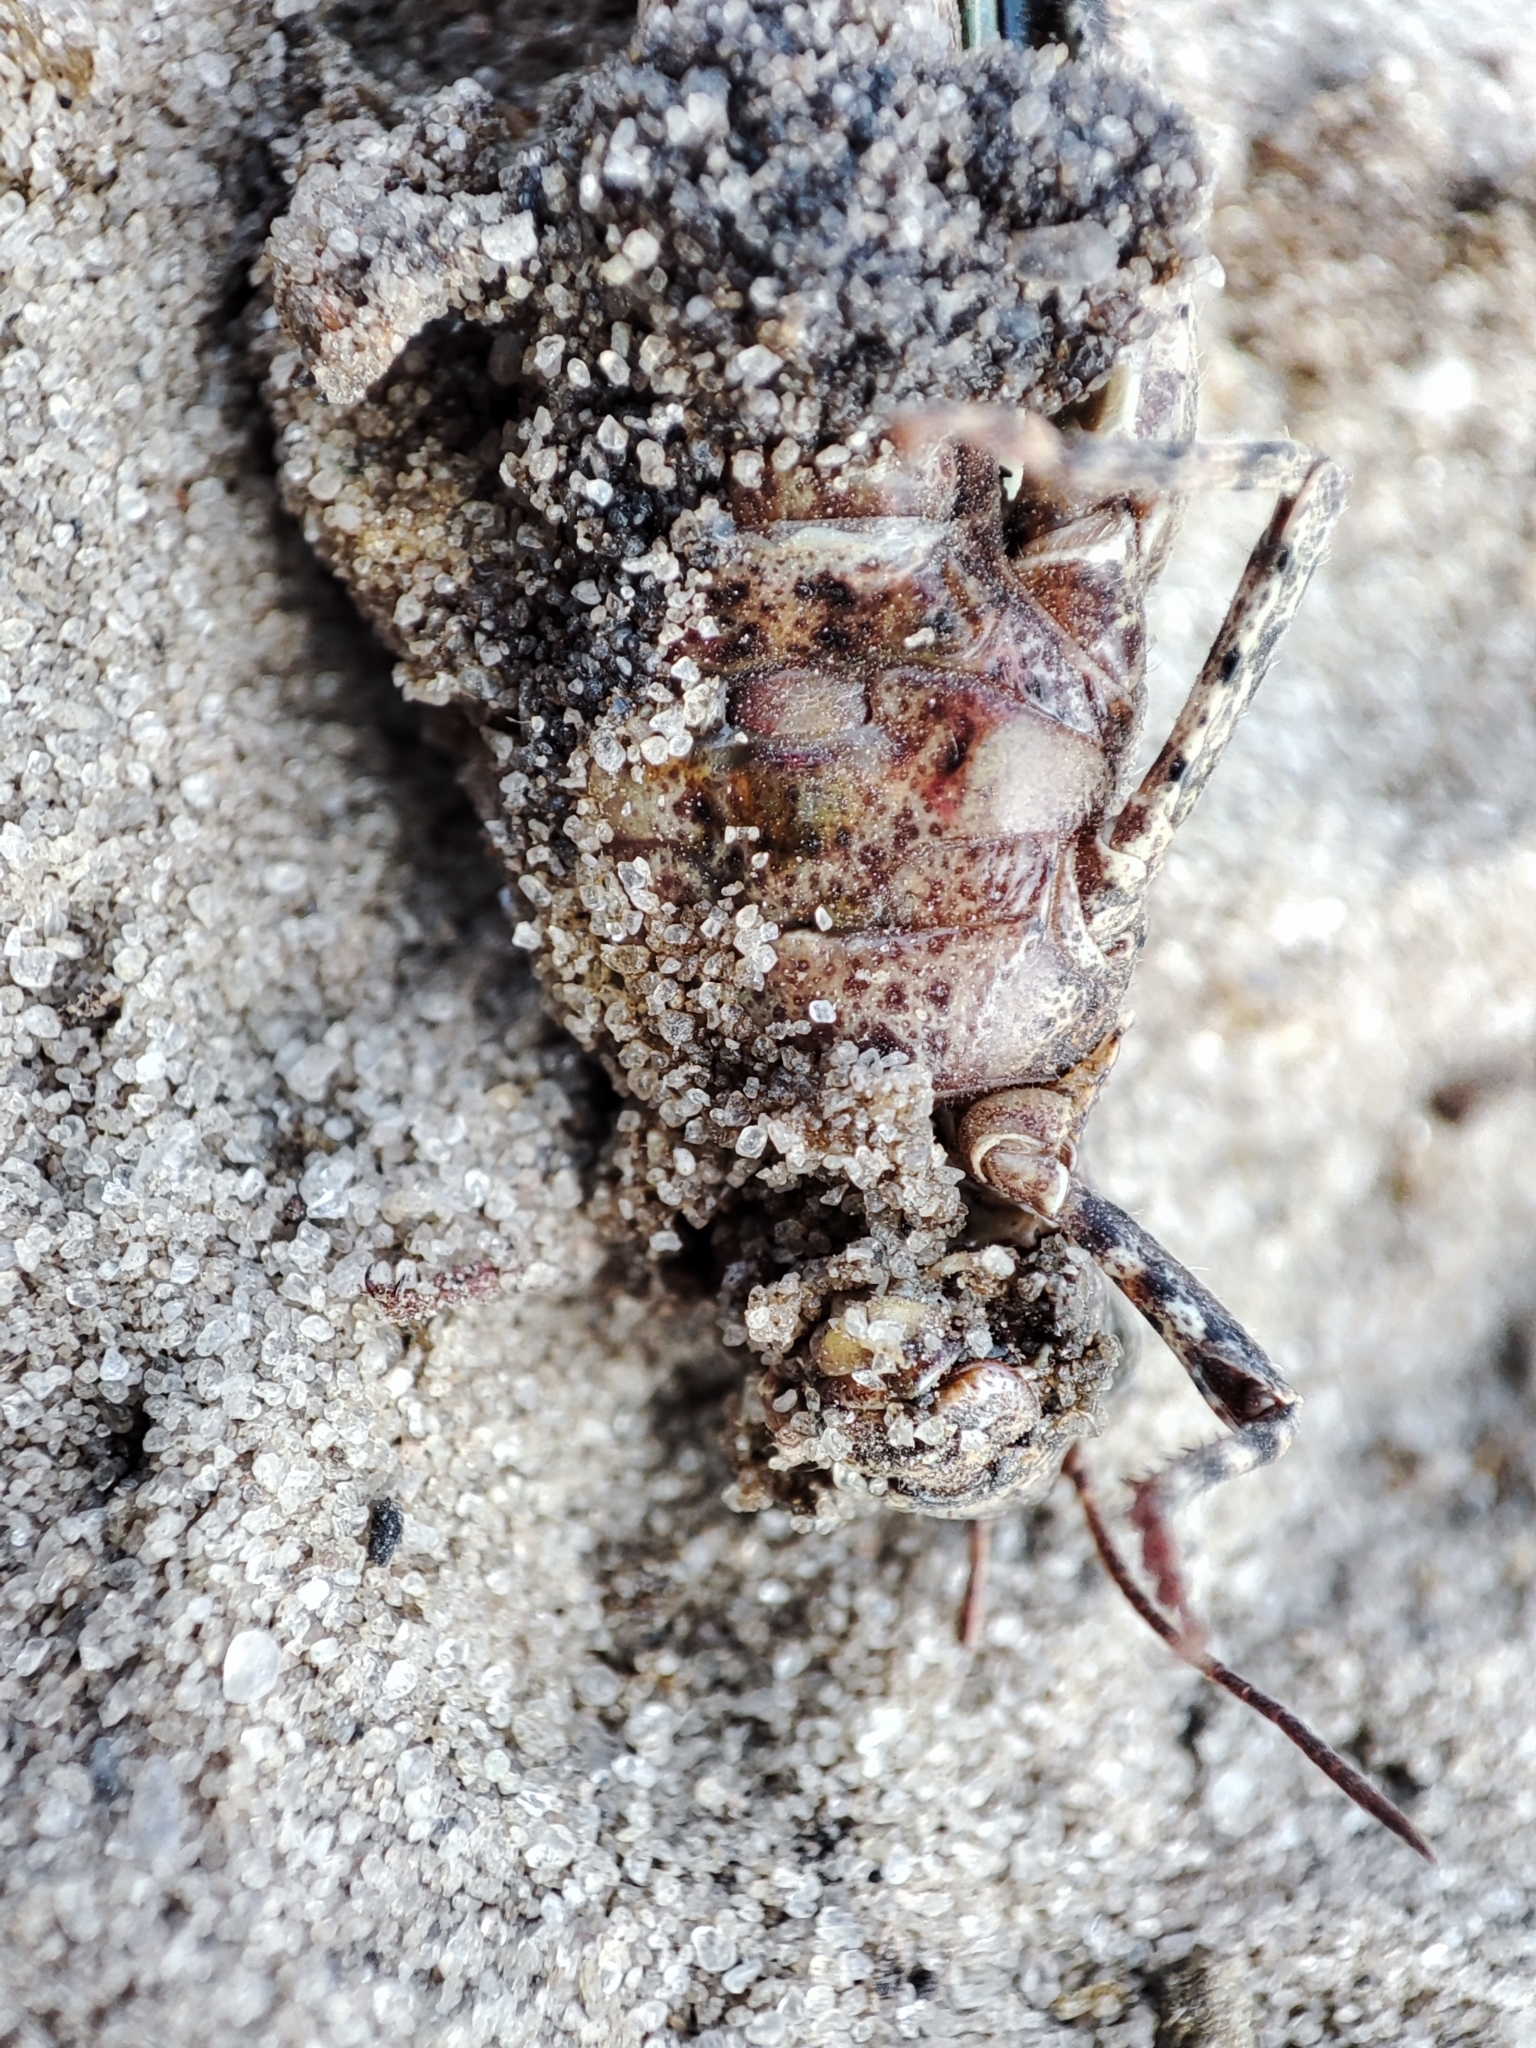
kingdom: Animalia
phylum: Arthropoda
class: Insecta
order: Orthoptera
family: Acrididae
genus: Oedipoda
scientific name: Oedipoda caerulescens
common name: Blue-winged grasshopper
